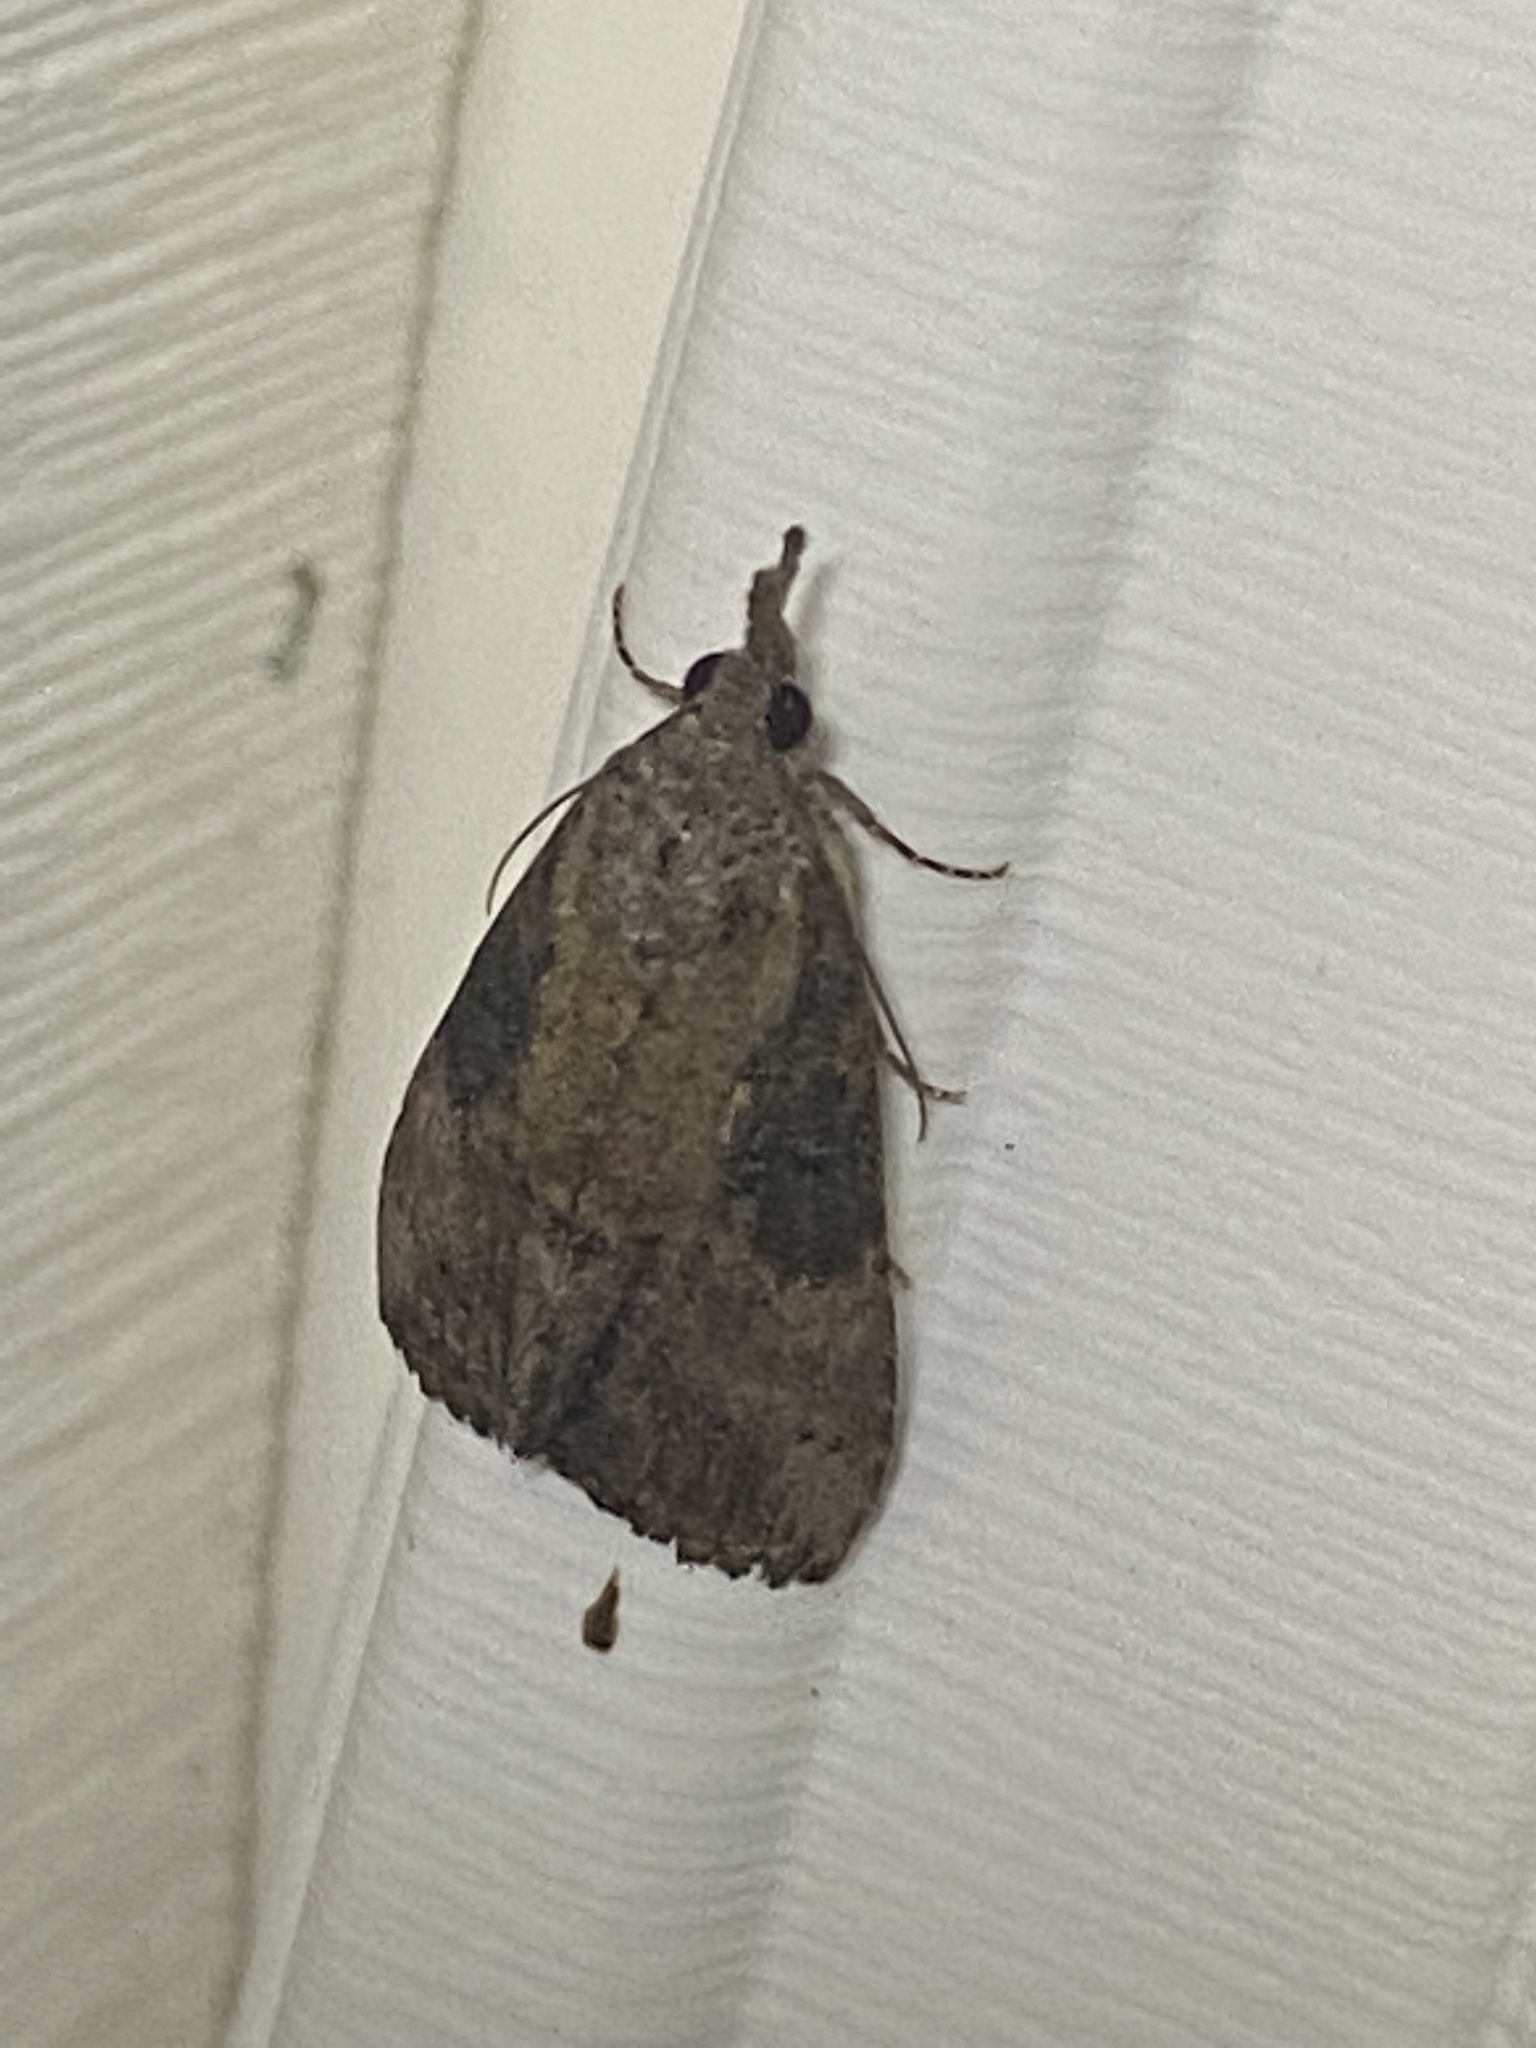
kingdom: Animalia
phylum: Arthropoda
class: Insecta
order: Lepidoptera
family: Erebidae
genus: Hypena
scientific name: Hypena scabra
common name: Green cloverworm
